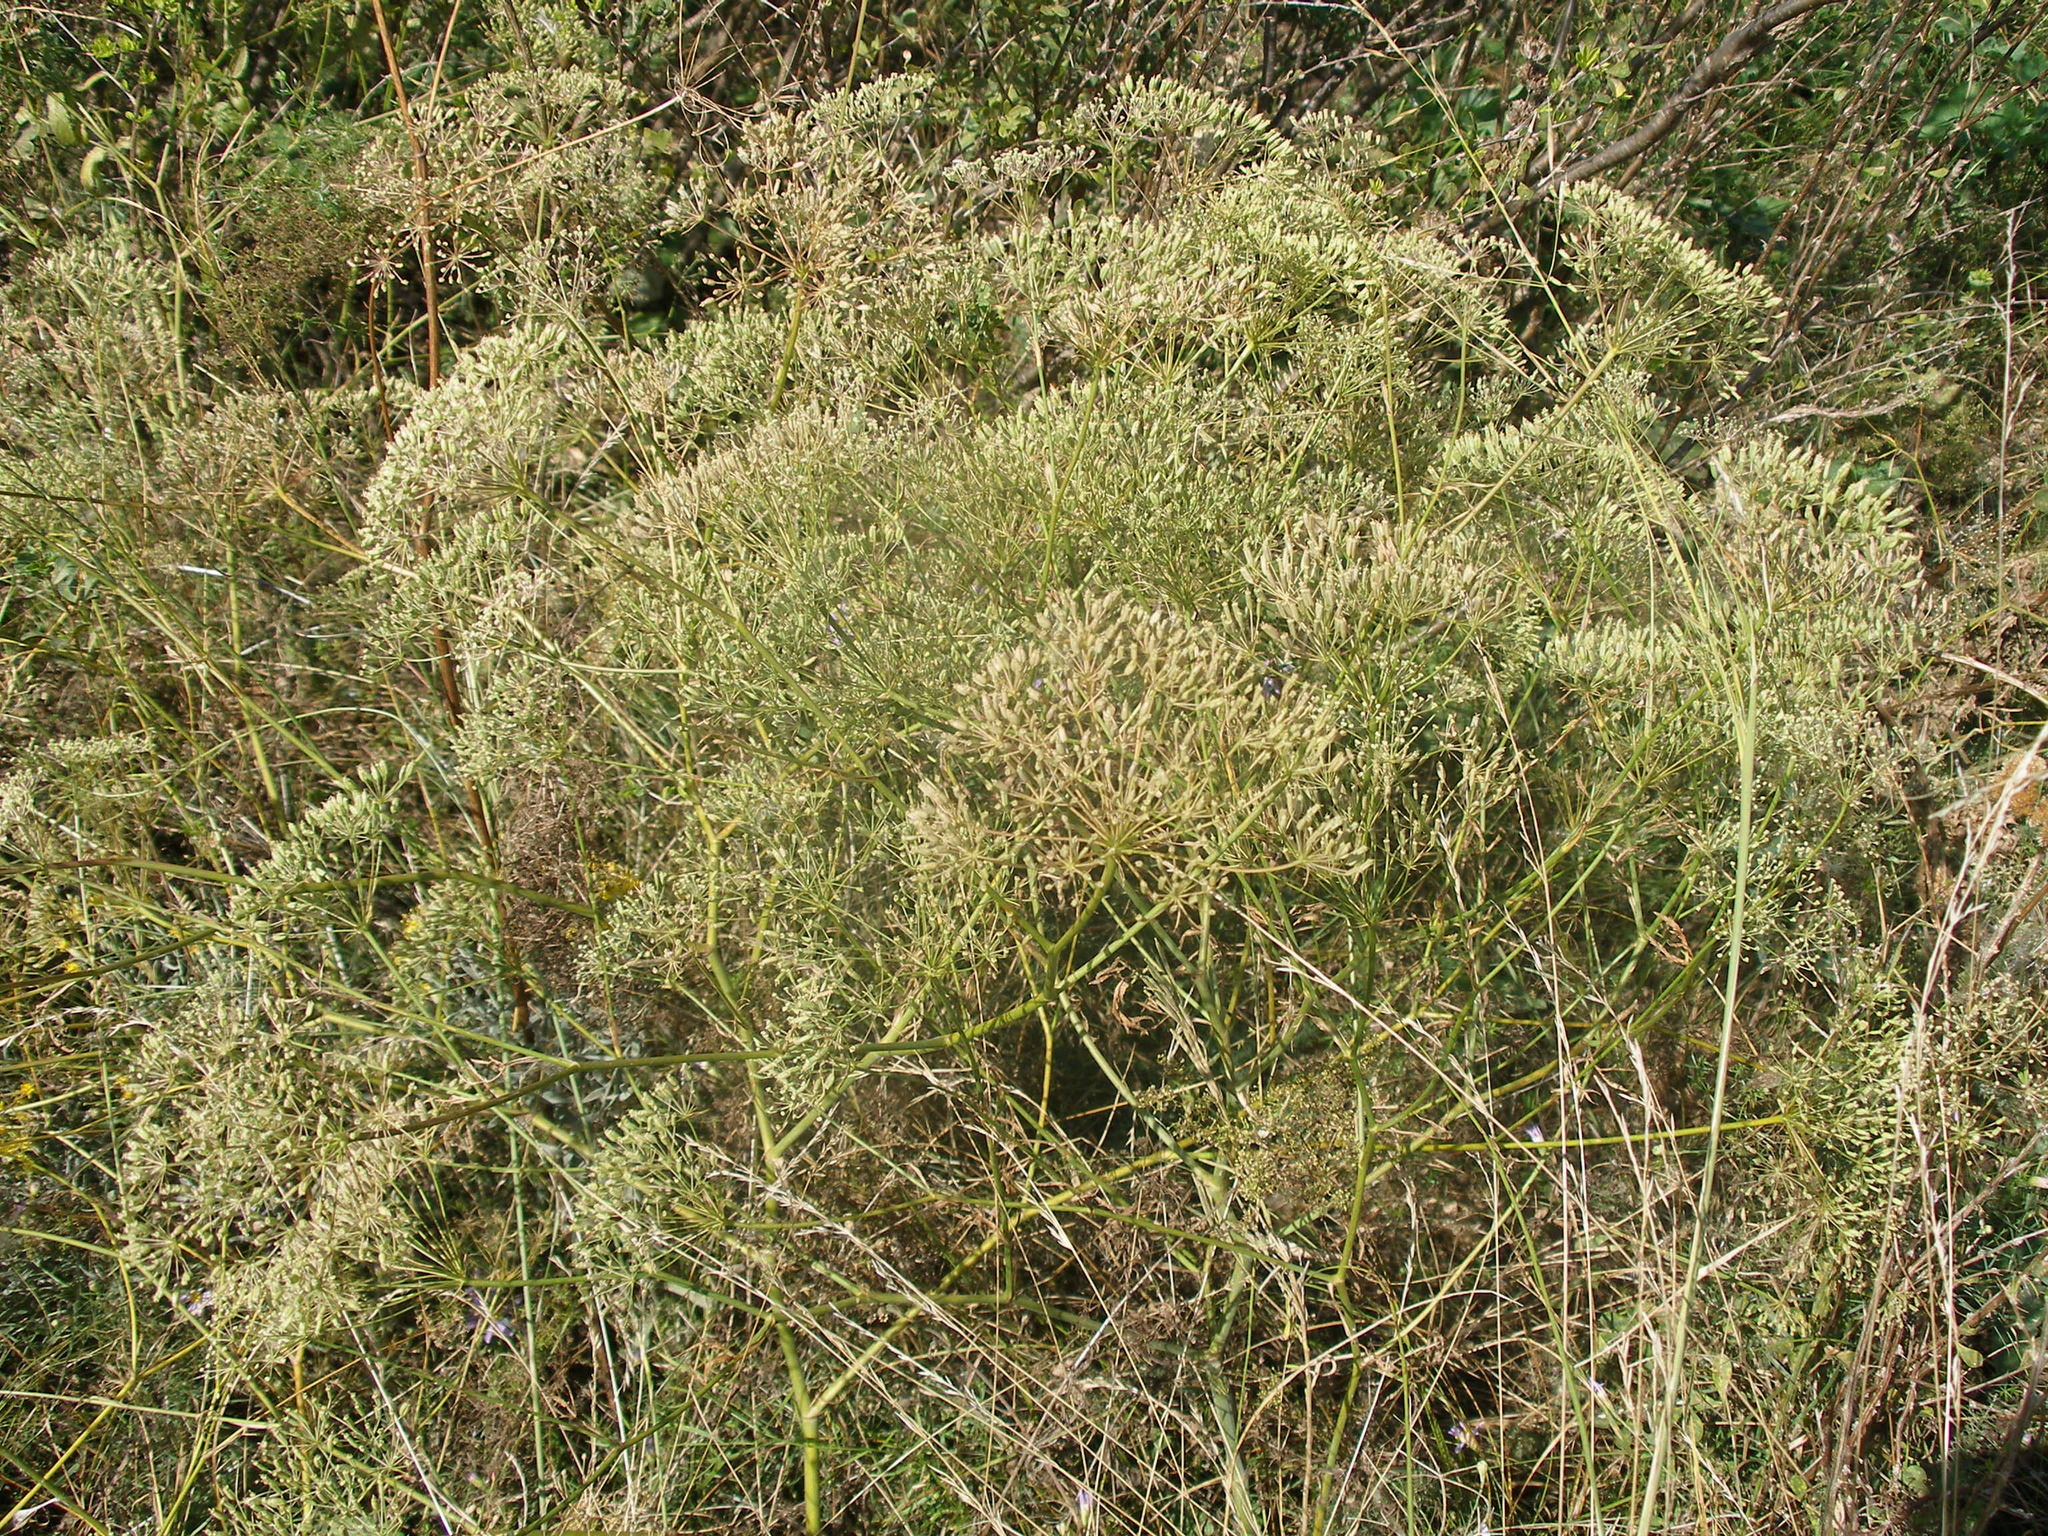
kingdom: Plantae
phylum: Tracheophyta
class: Magnoliopsida
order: Apiales
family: Apiaceae
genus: Falcaria
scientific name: Falcaria vulgaris
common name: Longleaf
